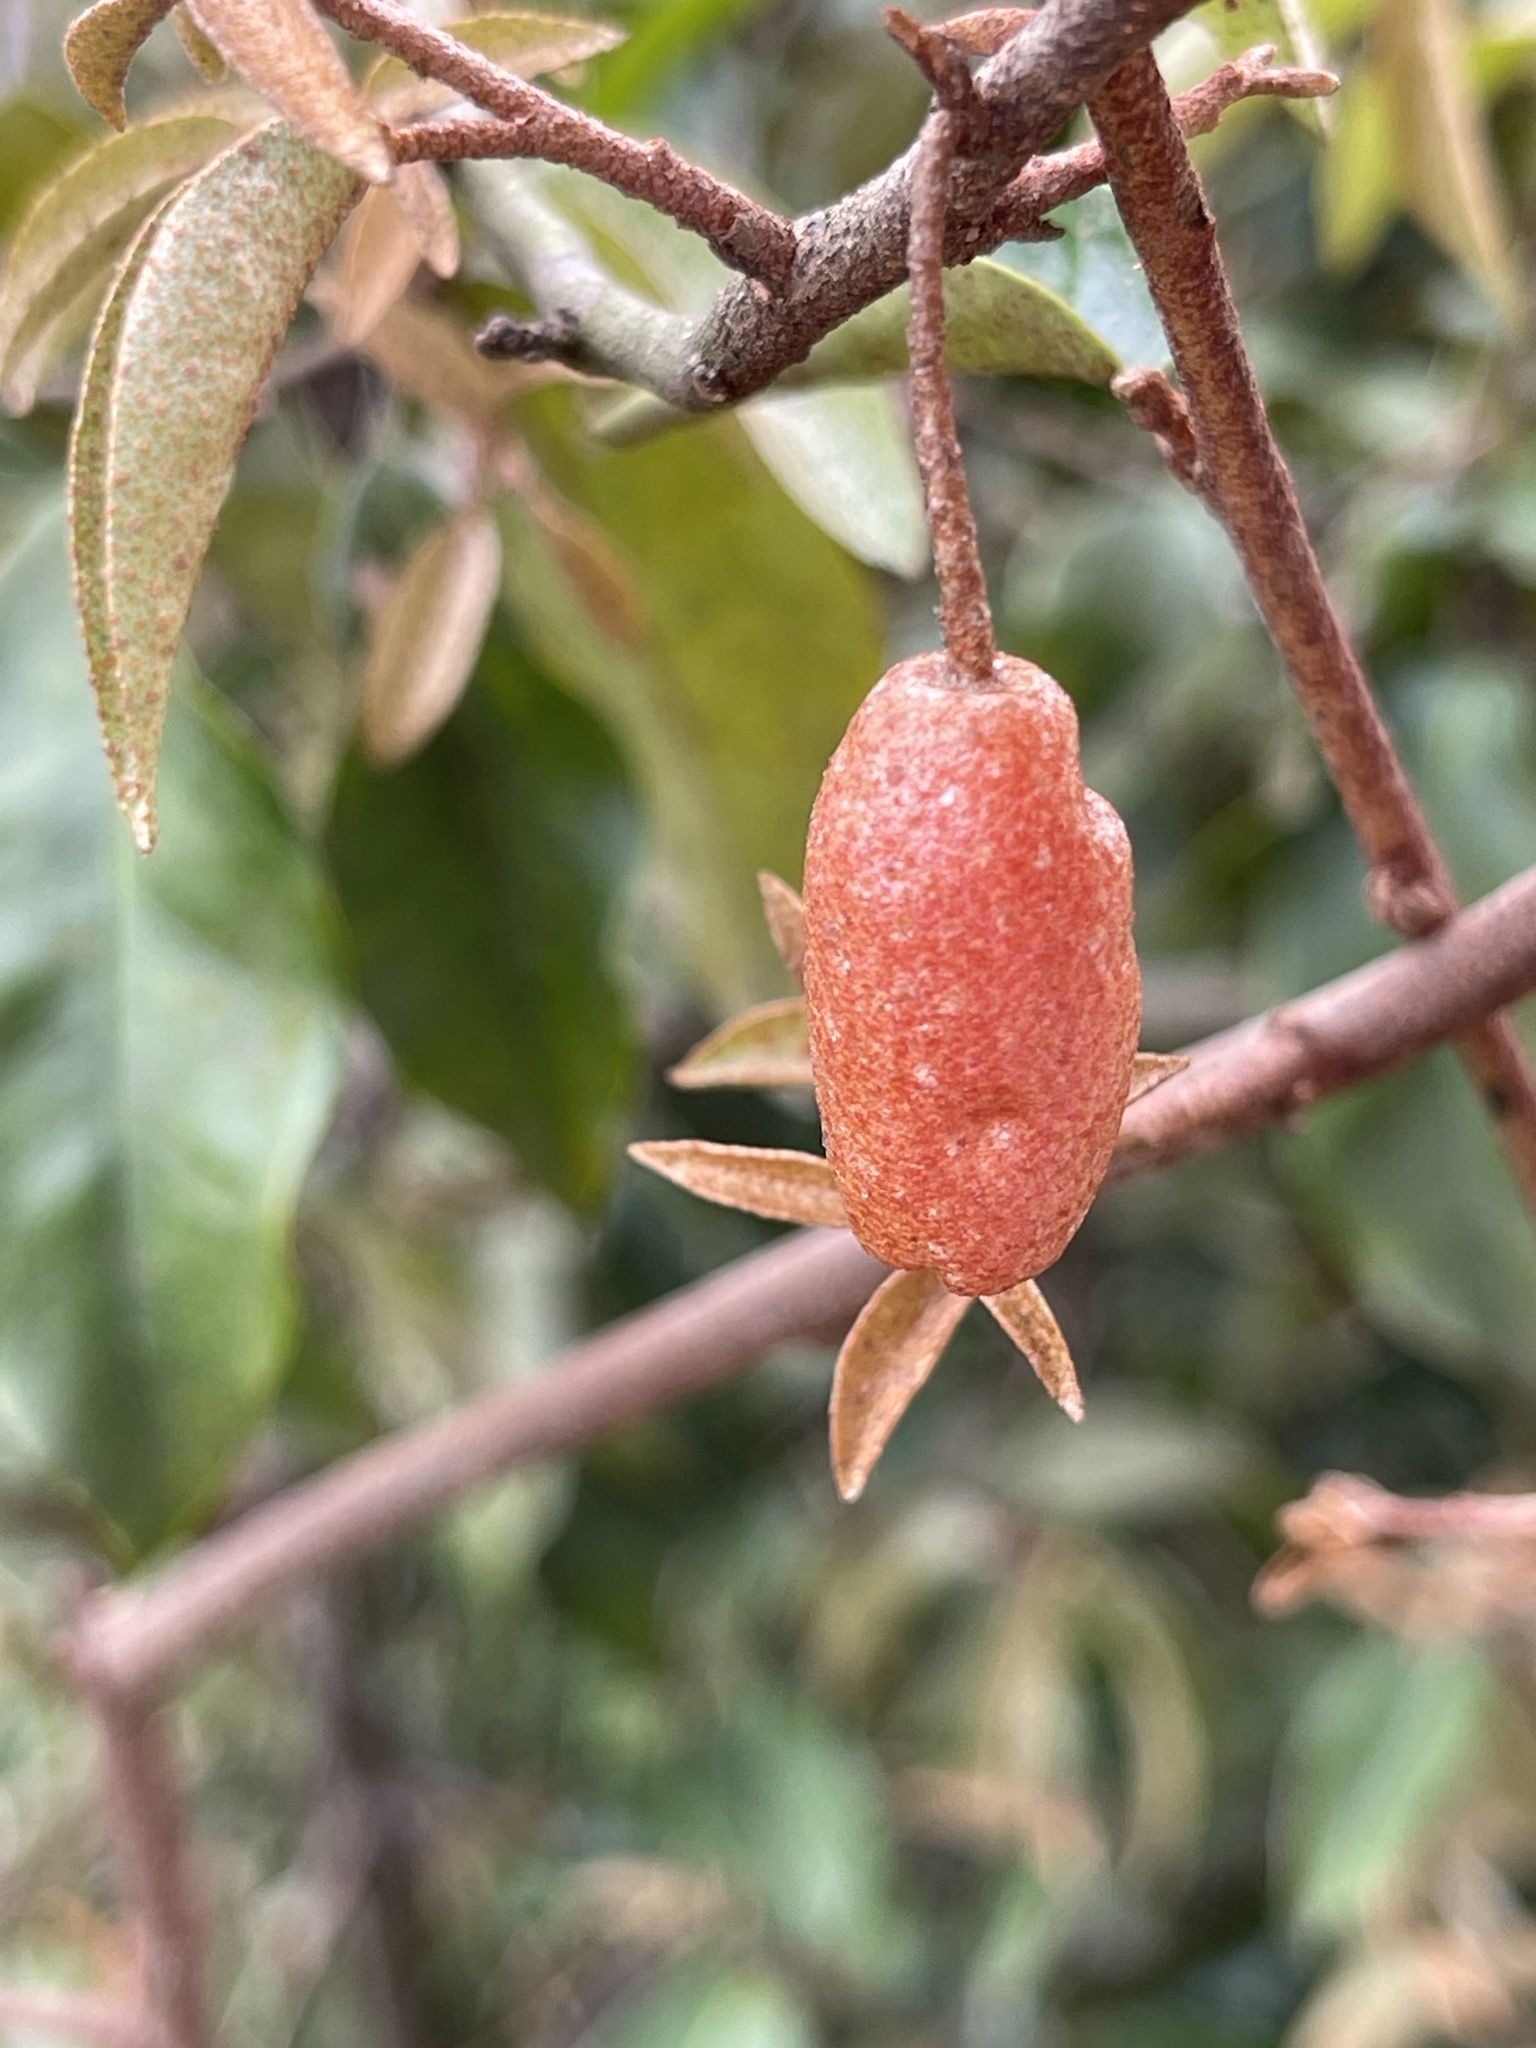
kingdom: Plantae
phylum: Tracheophyta
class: Magnoliopsida
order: Rosales
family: Elaeagnaceae
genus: Elaeagnus
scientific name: Elaeagnus loureiroi
